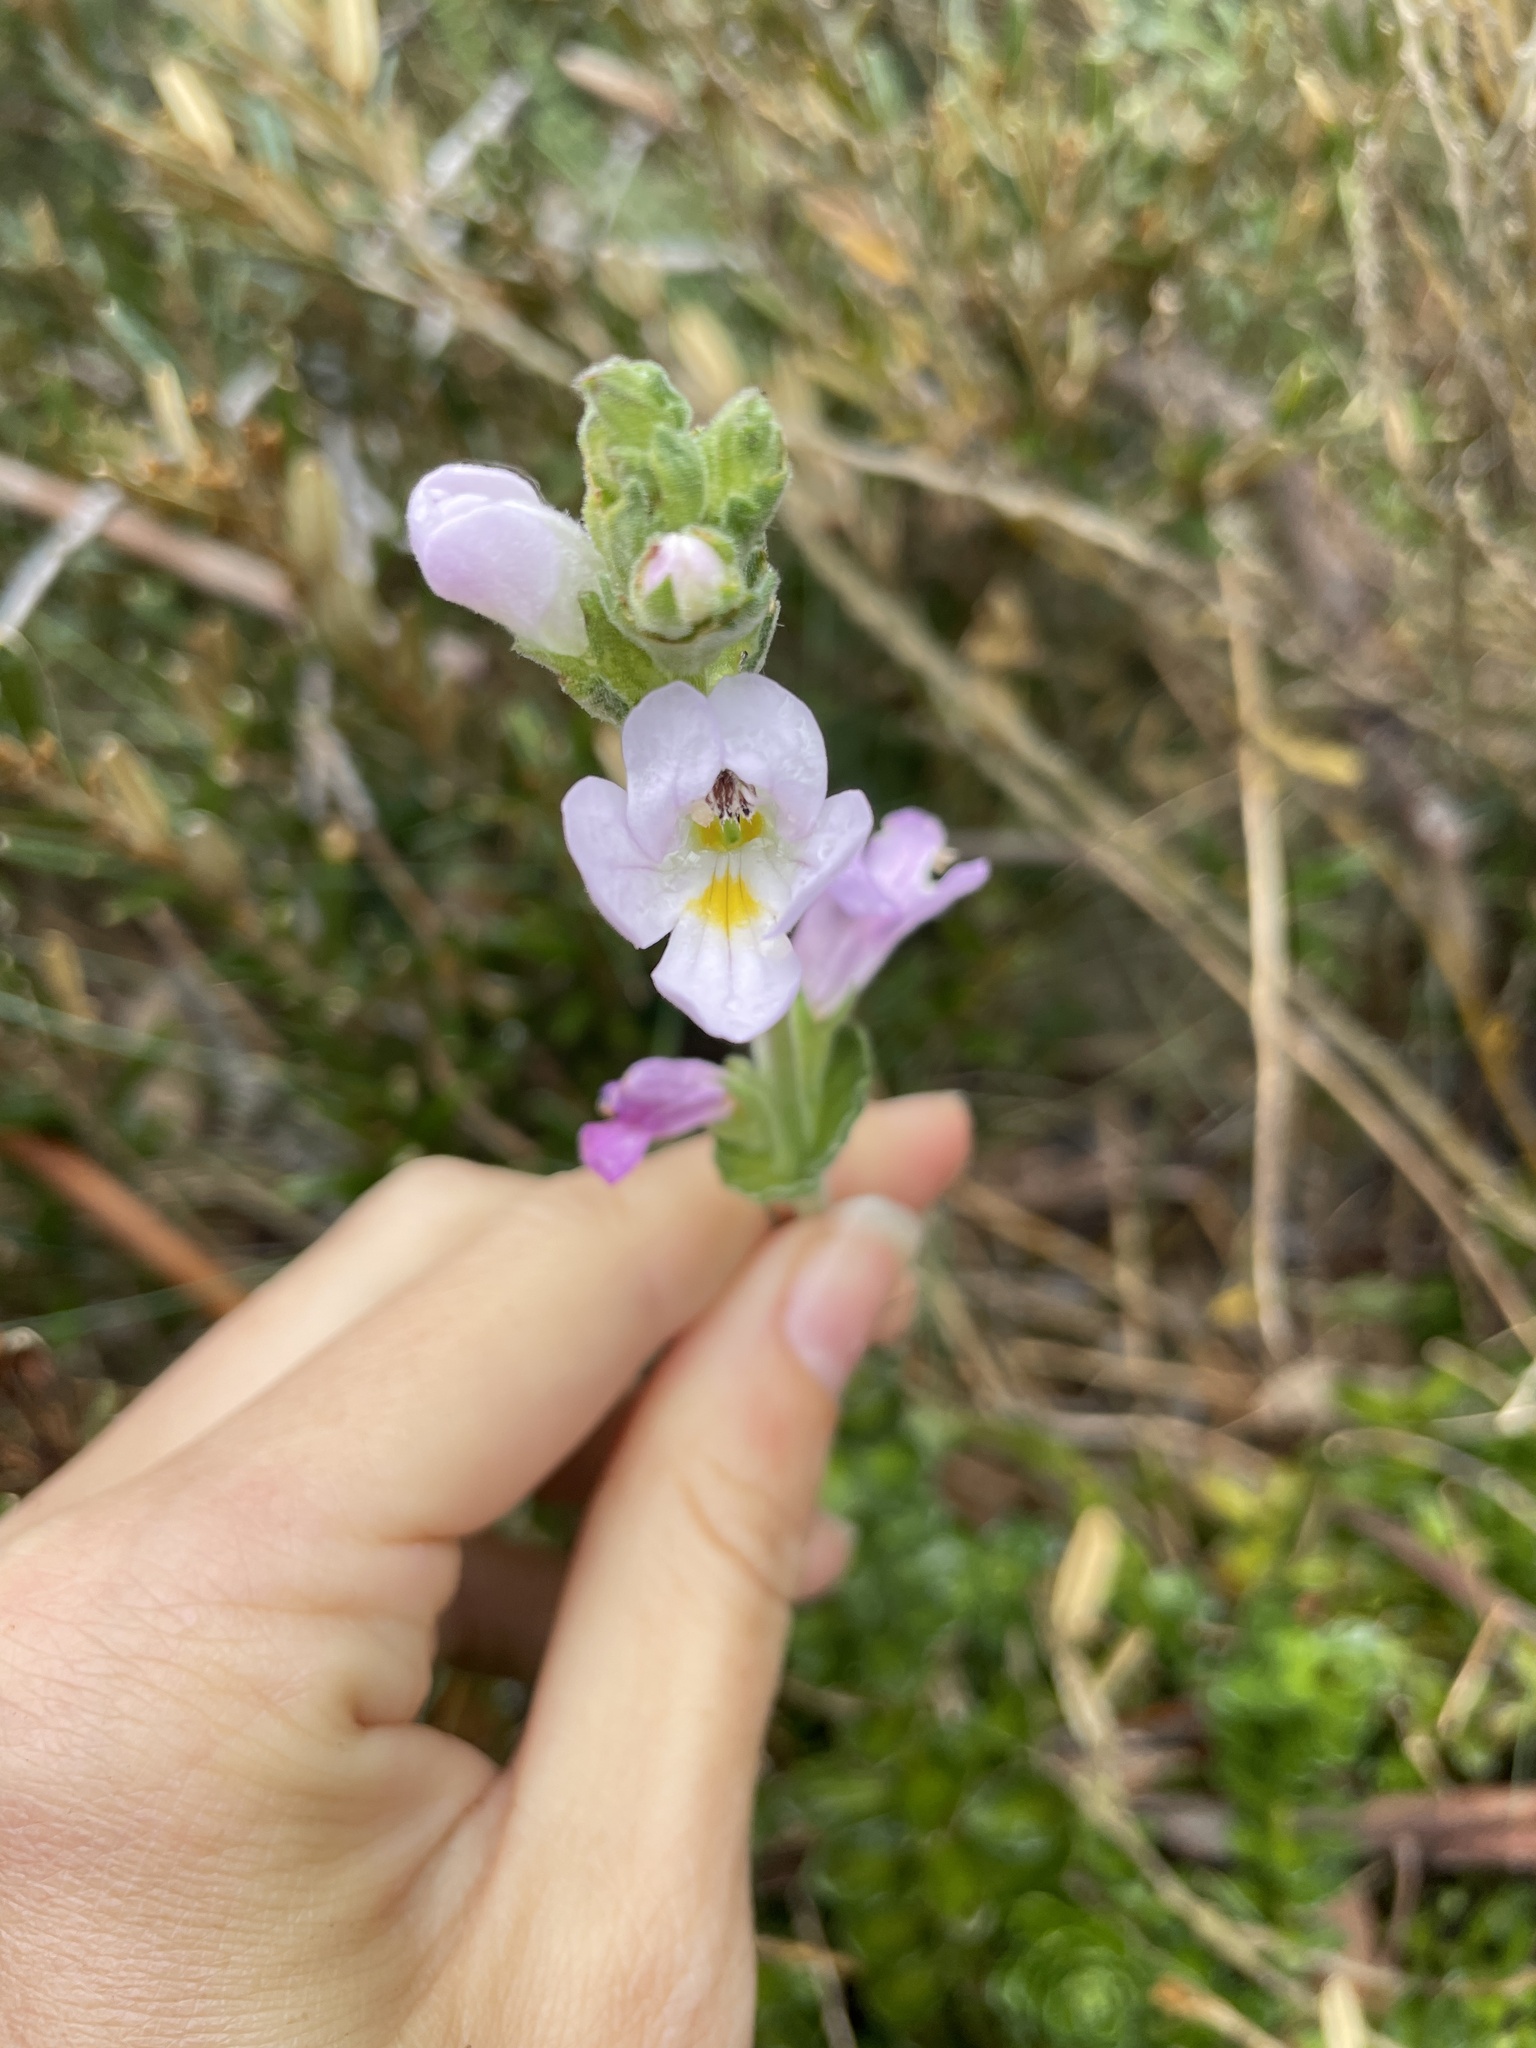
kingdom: Plantae
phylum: Tracheophyta
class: Magnoliopsida
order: Lamiales
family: Orobanchaceae
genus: Euphrasia
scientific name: Euphrasia collina
